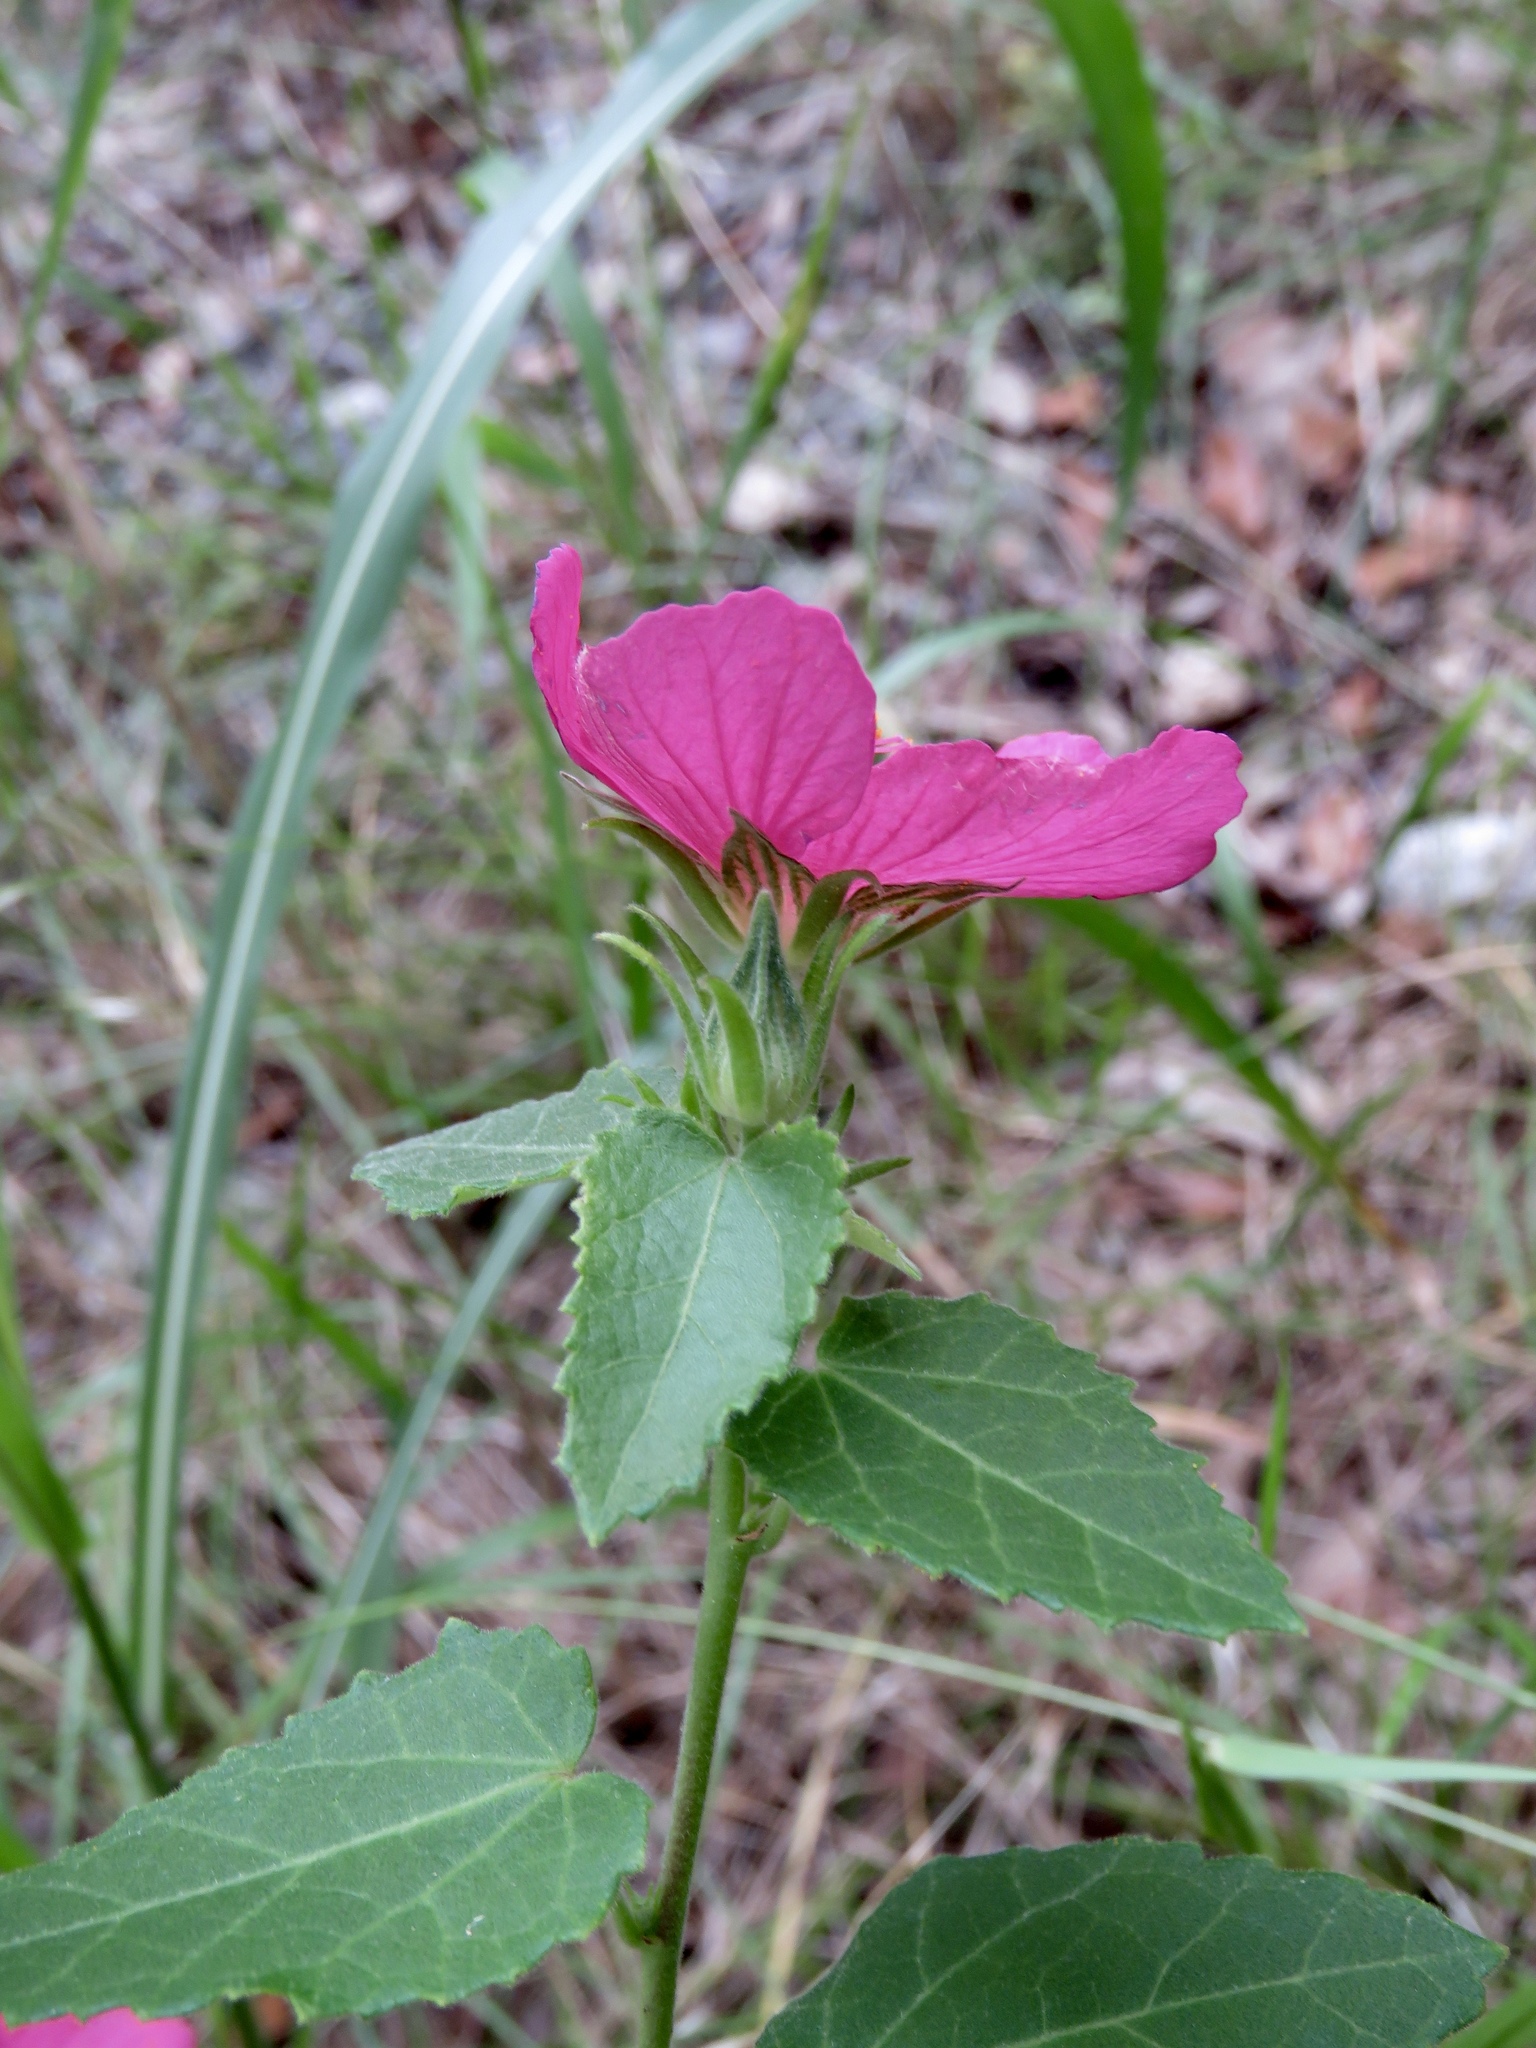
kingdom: Plantae
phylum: Tracheophyta
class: Magnoliopsida
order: Malvales
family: Malvaceae
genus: Pavonia
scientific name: Pavonia lasiopetala
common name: Texas swamp-mallow
